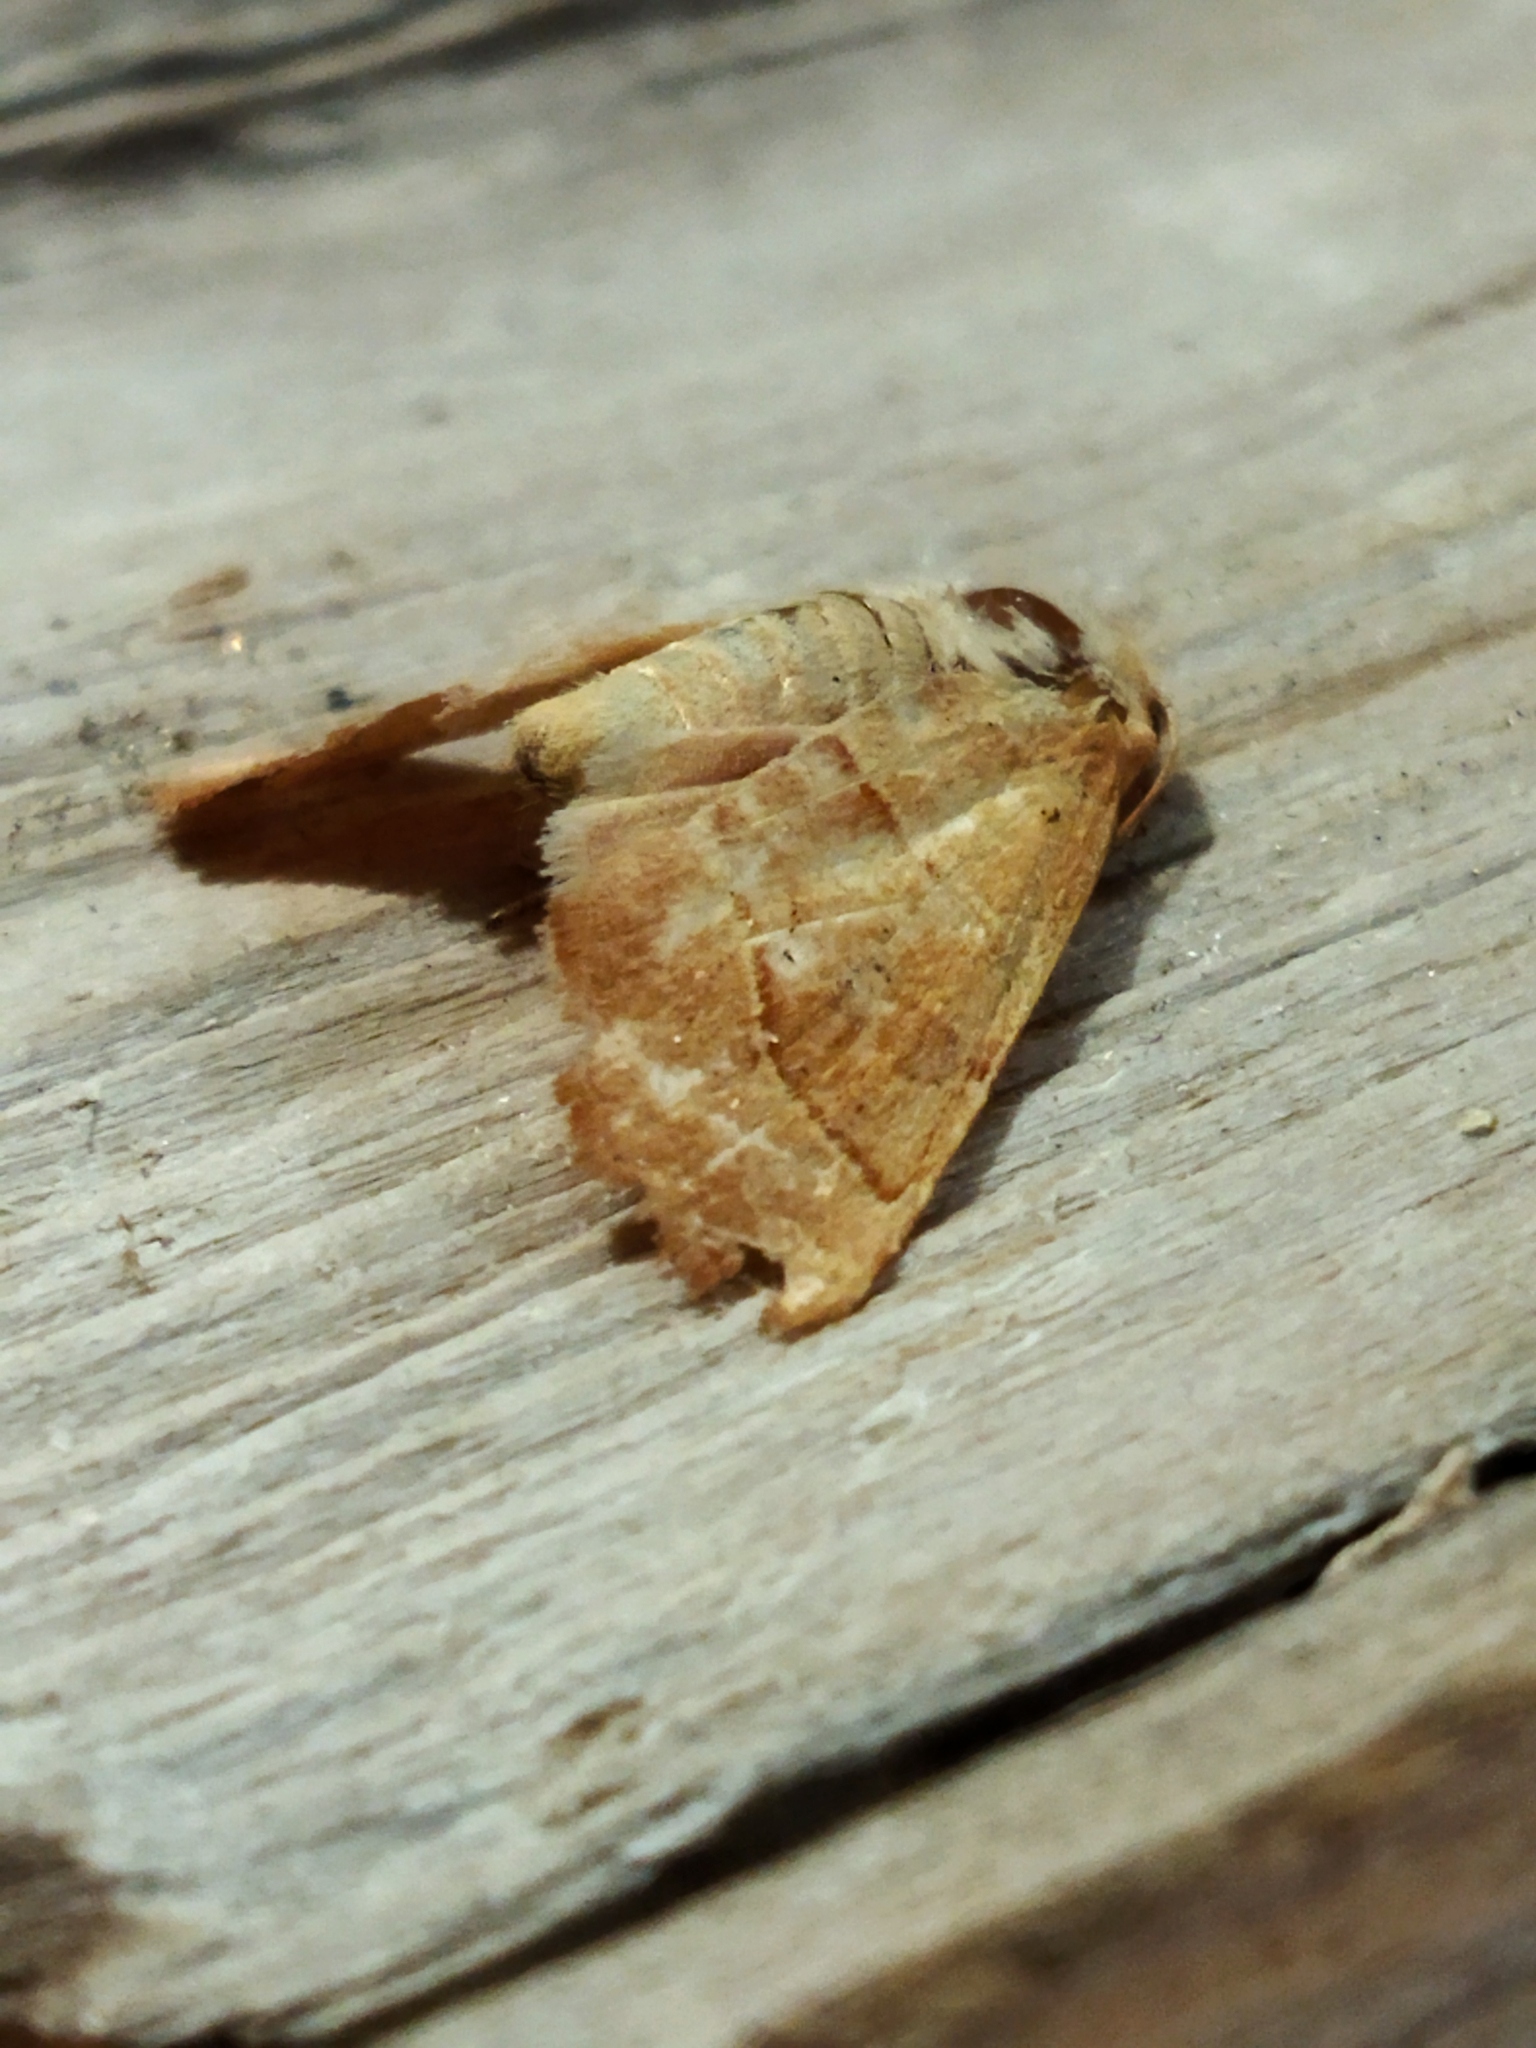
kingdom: Animalia
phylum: Arthropoda
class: Insecta
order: Lepidoptera
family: Noctuidae
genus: Atethmia
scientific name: Atethmia centrago
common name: Centre-barred sallow
